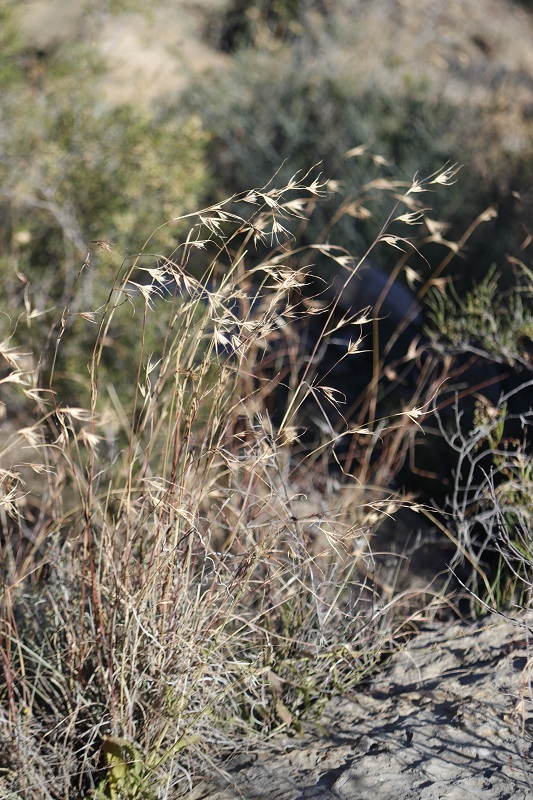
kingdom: Plantae
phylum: Tracheophyta
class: Liliopsida
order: Poales
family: Poaceae
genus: Themeda
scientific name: Themeda triandra
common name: Kangaroo grass
